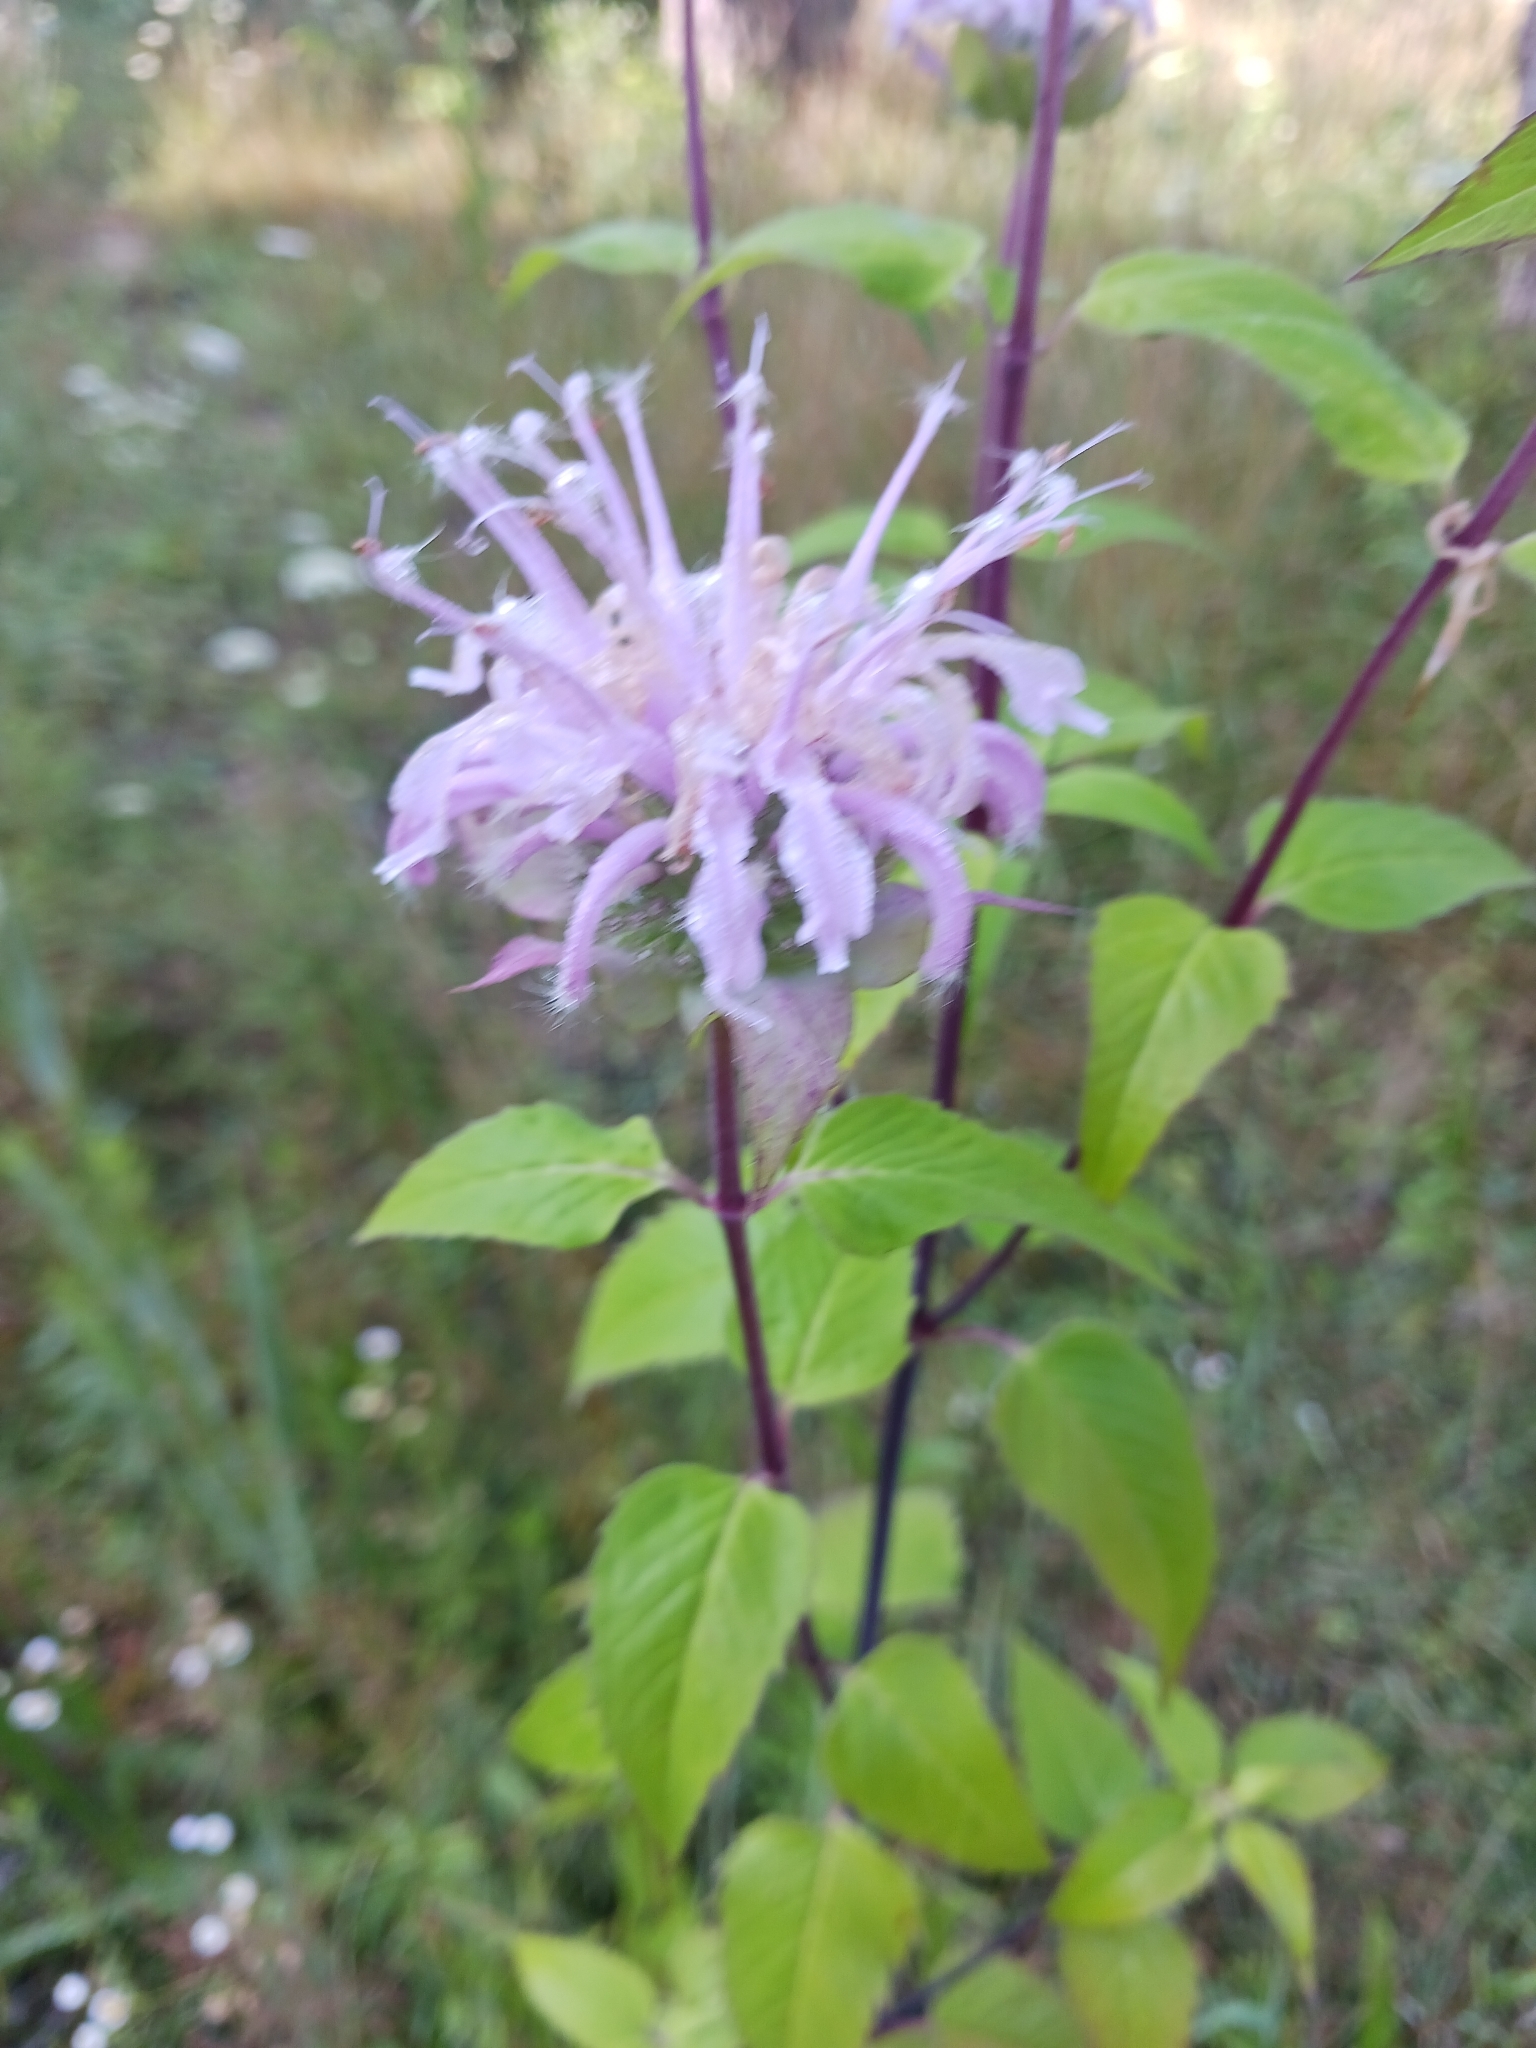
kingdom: Plantae
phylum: Tracheophyta
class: Magnoliopsida
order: Lamiales
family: Lamiaceae
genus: Monarda
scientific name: Monarda fistulosa
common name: Purple beebalm
